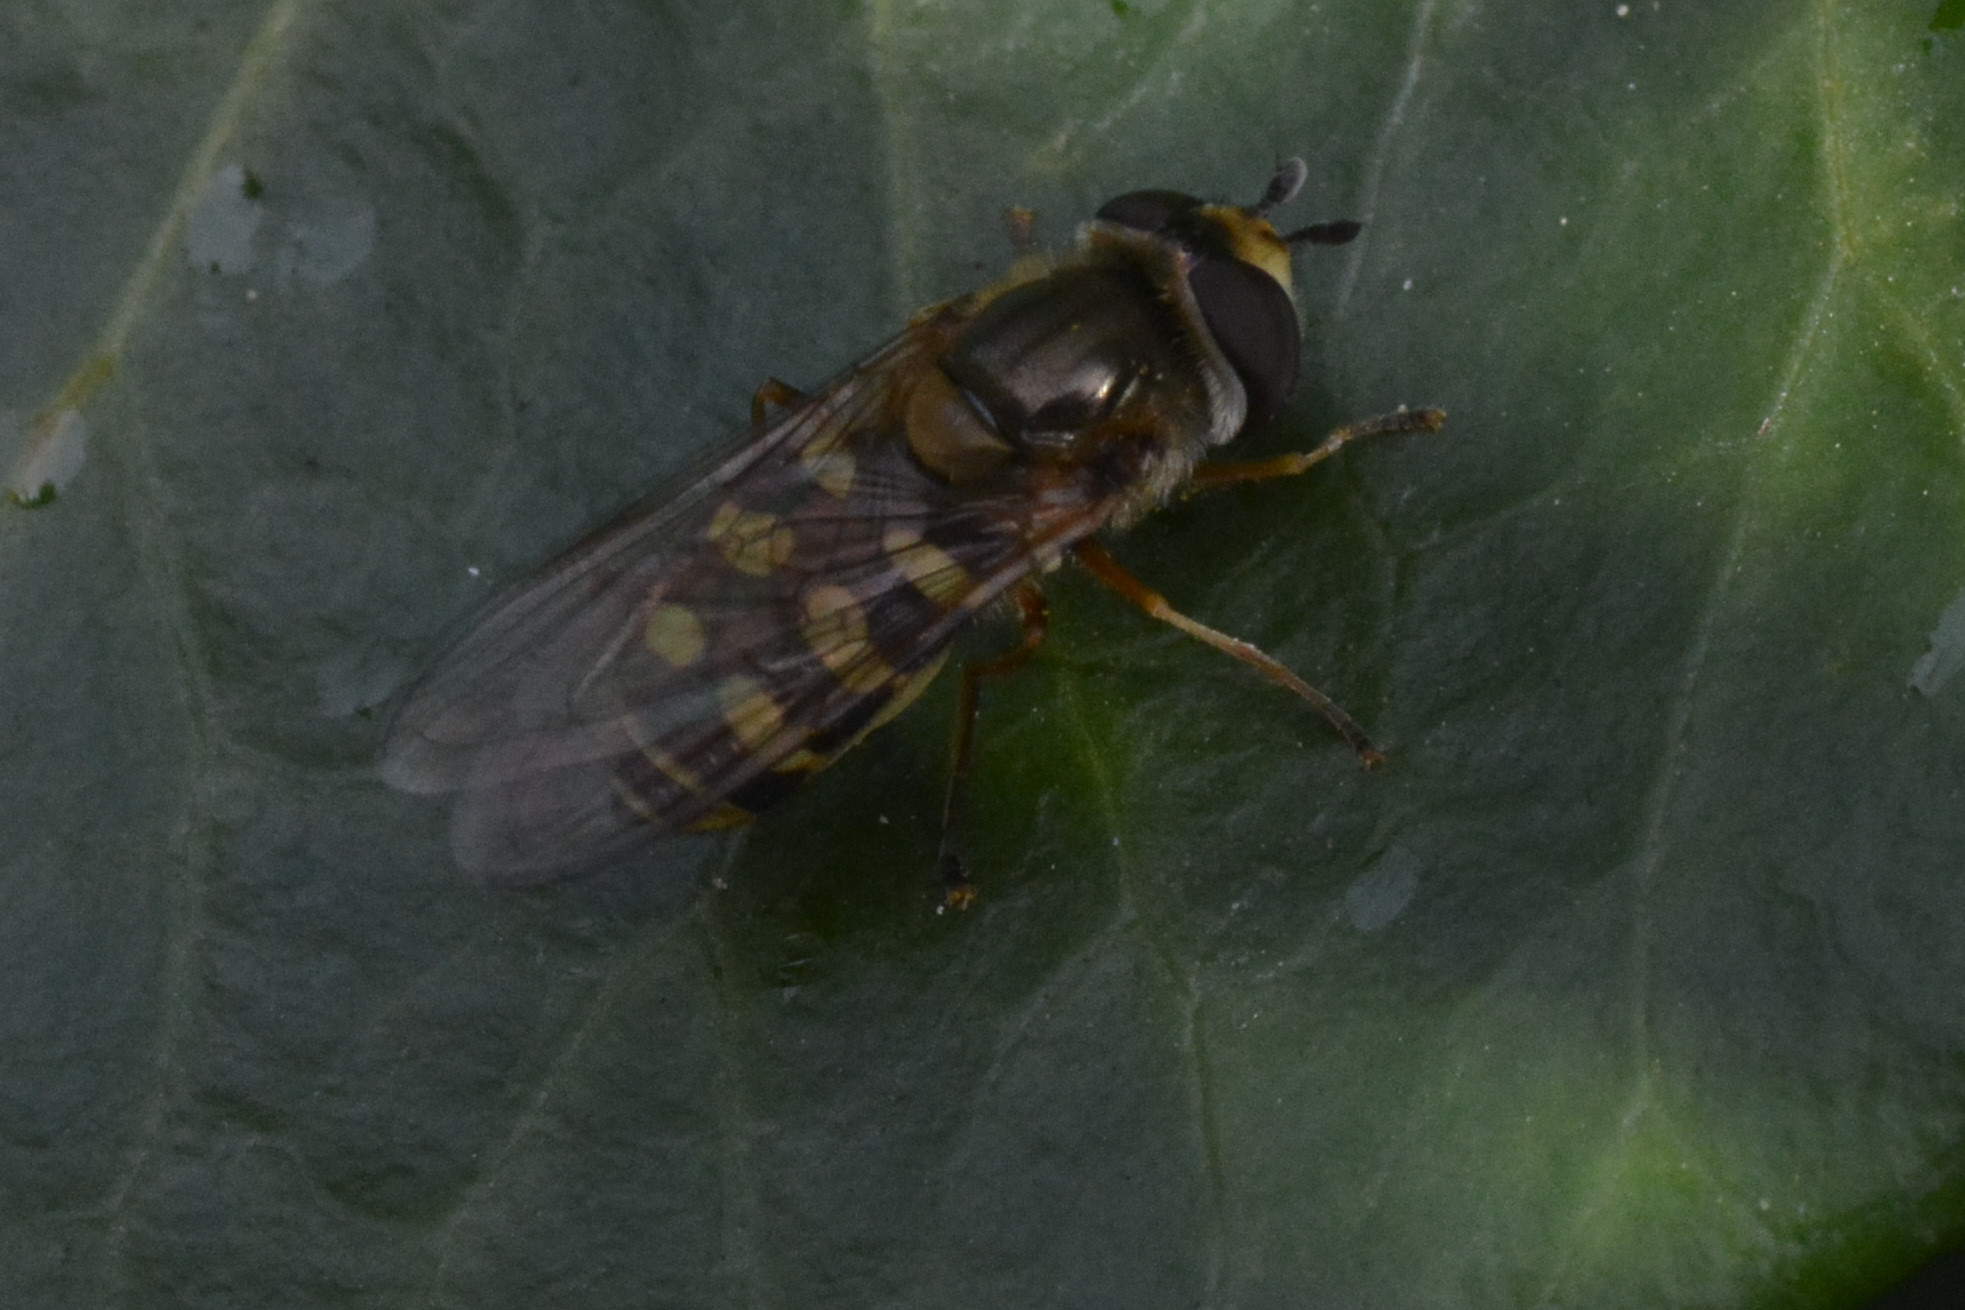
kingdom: Animalia
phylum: Arthropoda
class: Insecta
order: Diptera
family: Syrphidae
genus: Eupeodes
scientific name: Eupeodes corollae
